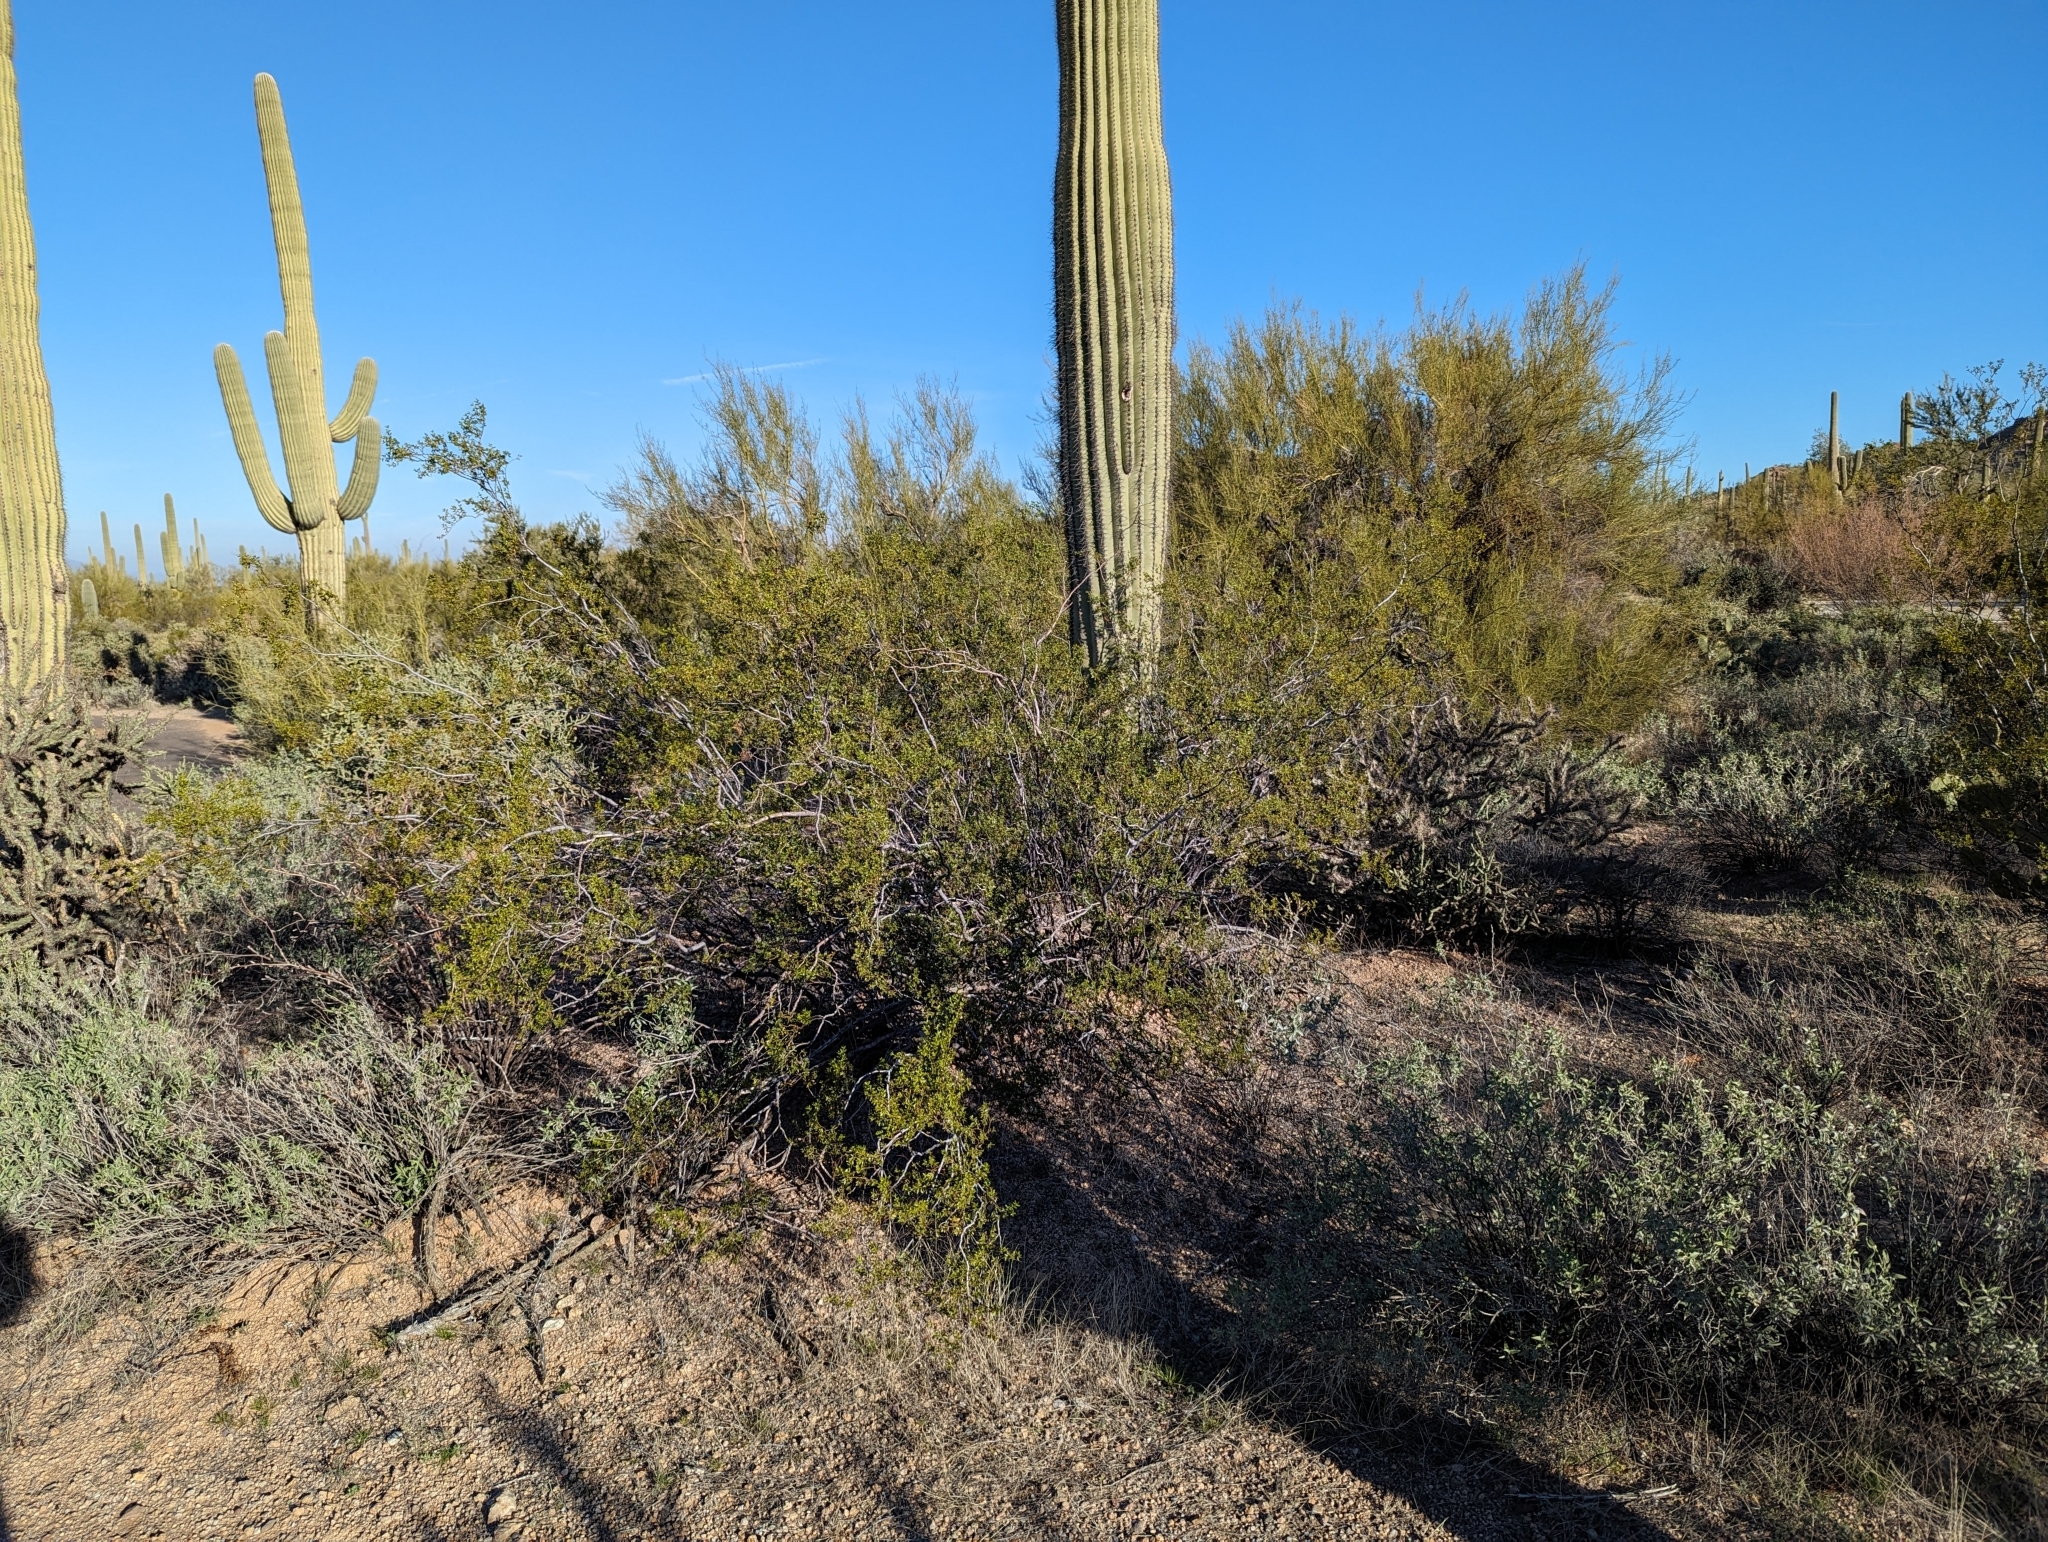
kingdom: Plantae
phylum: Tracheophyta
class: Magnoliopsida
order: Zygophyllales
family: Zygophyllaceae
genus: Larrea
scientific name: Larrea tridentata
